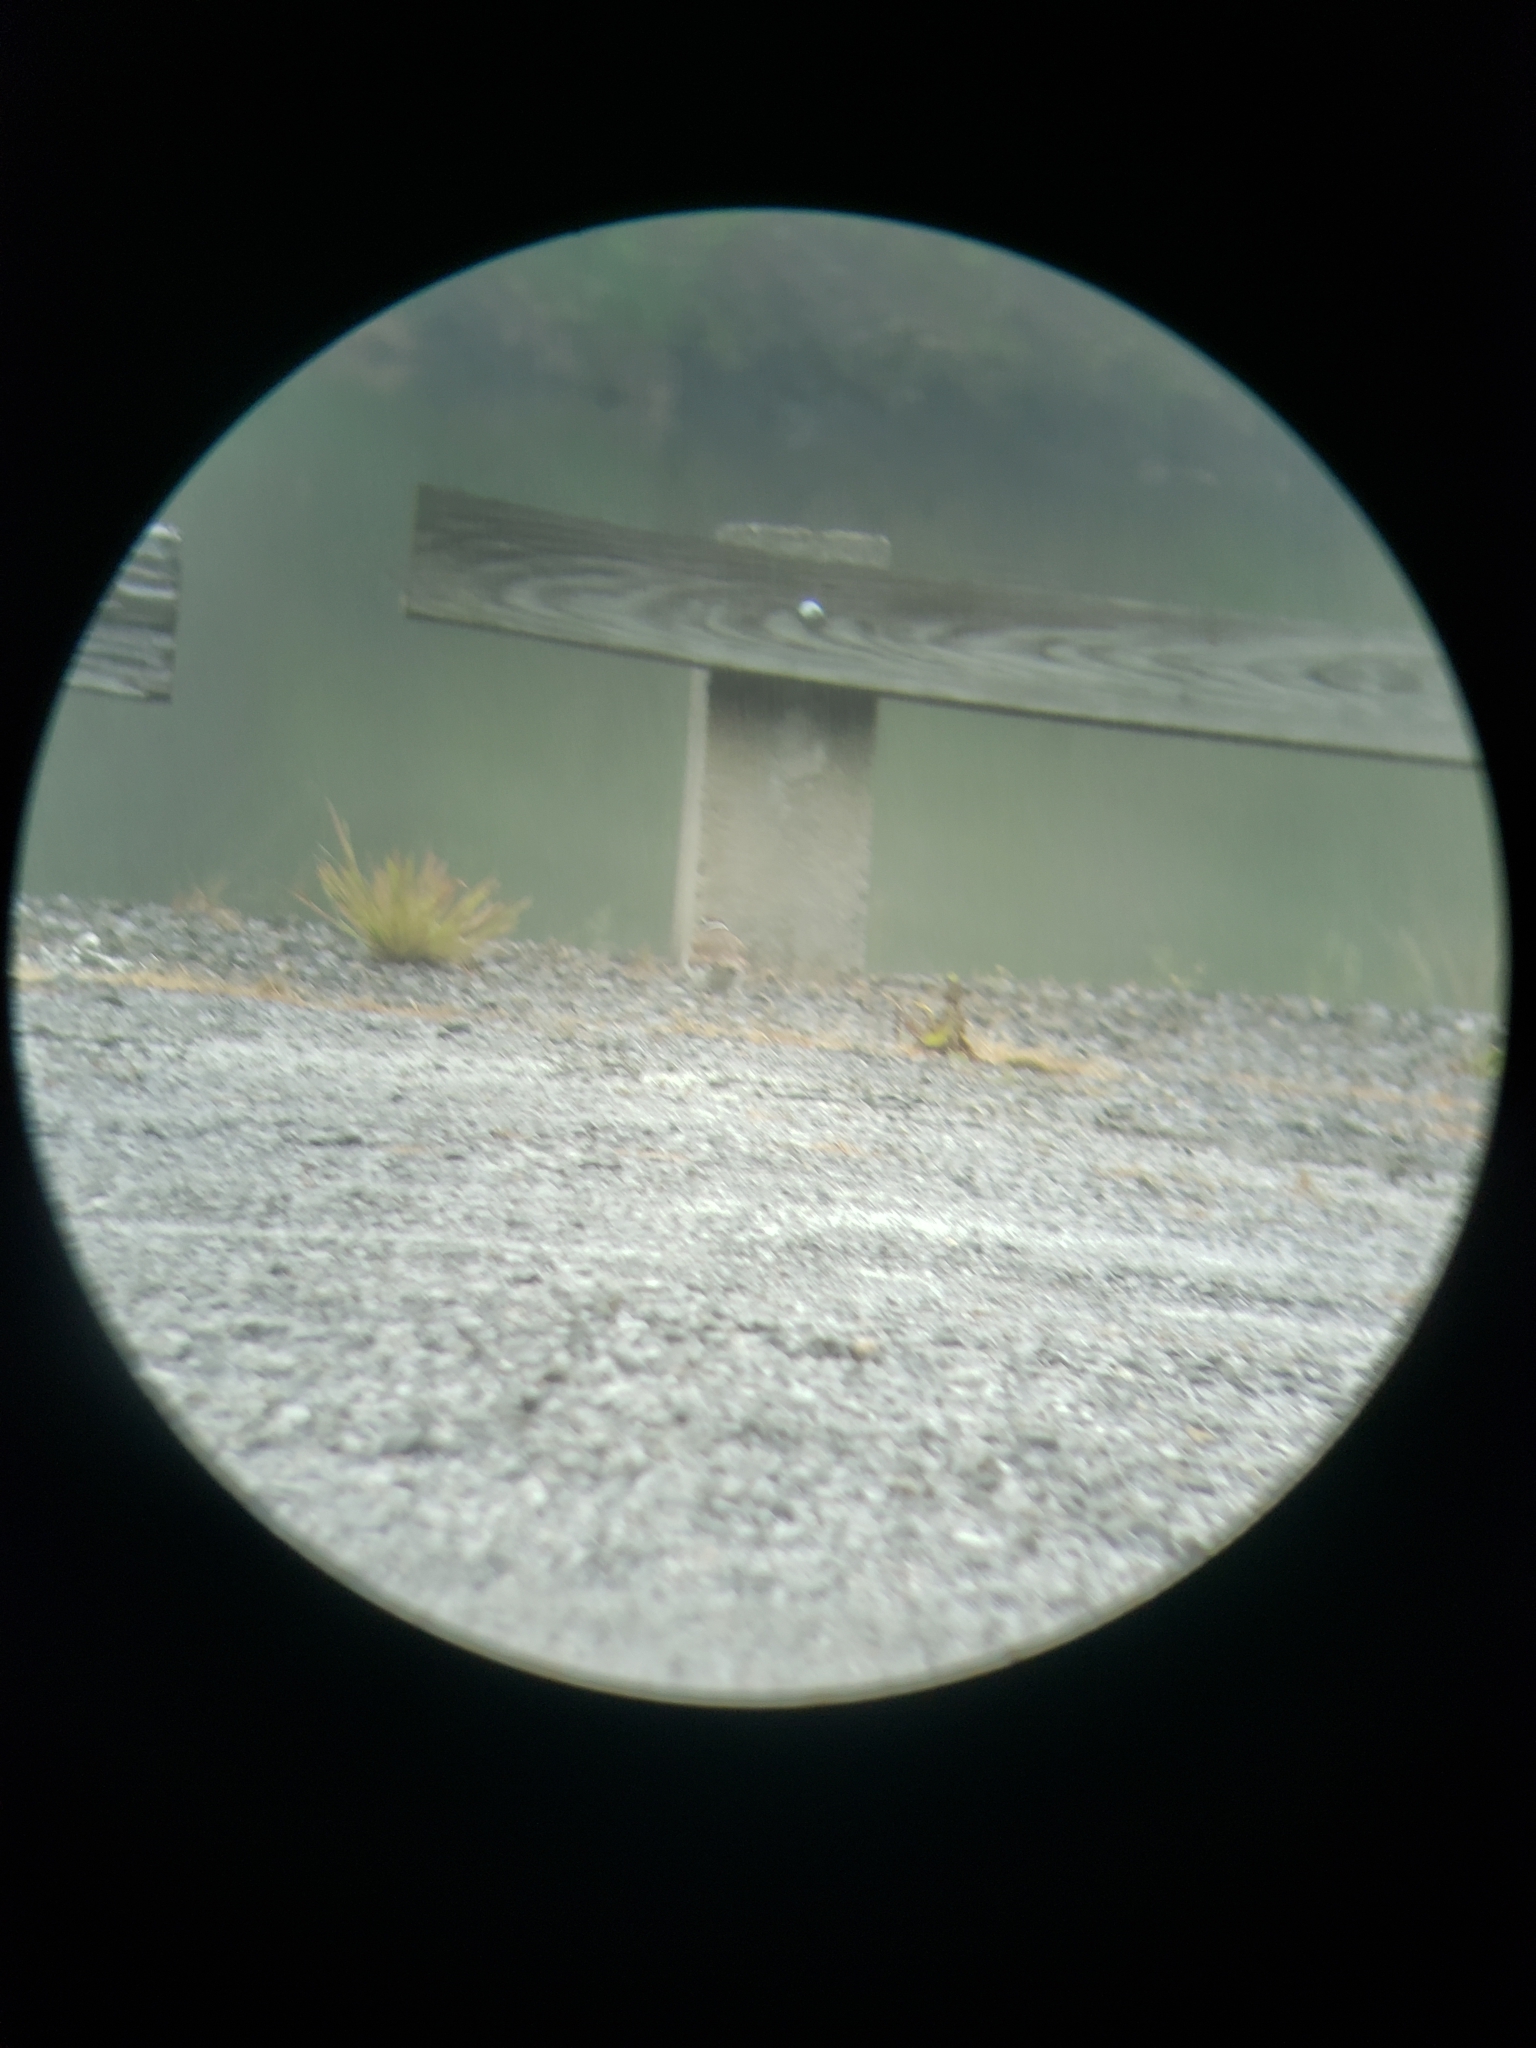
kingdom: Animalia
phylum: Chordata
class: Aves
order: Charadriiformes
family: Charadriidae
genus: Charadrius
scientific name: Charadrius vociferus
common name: Killdeer
